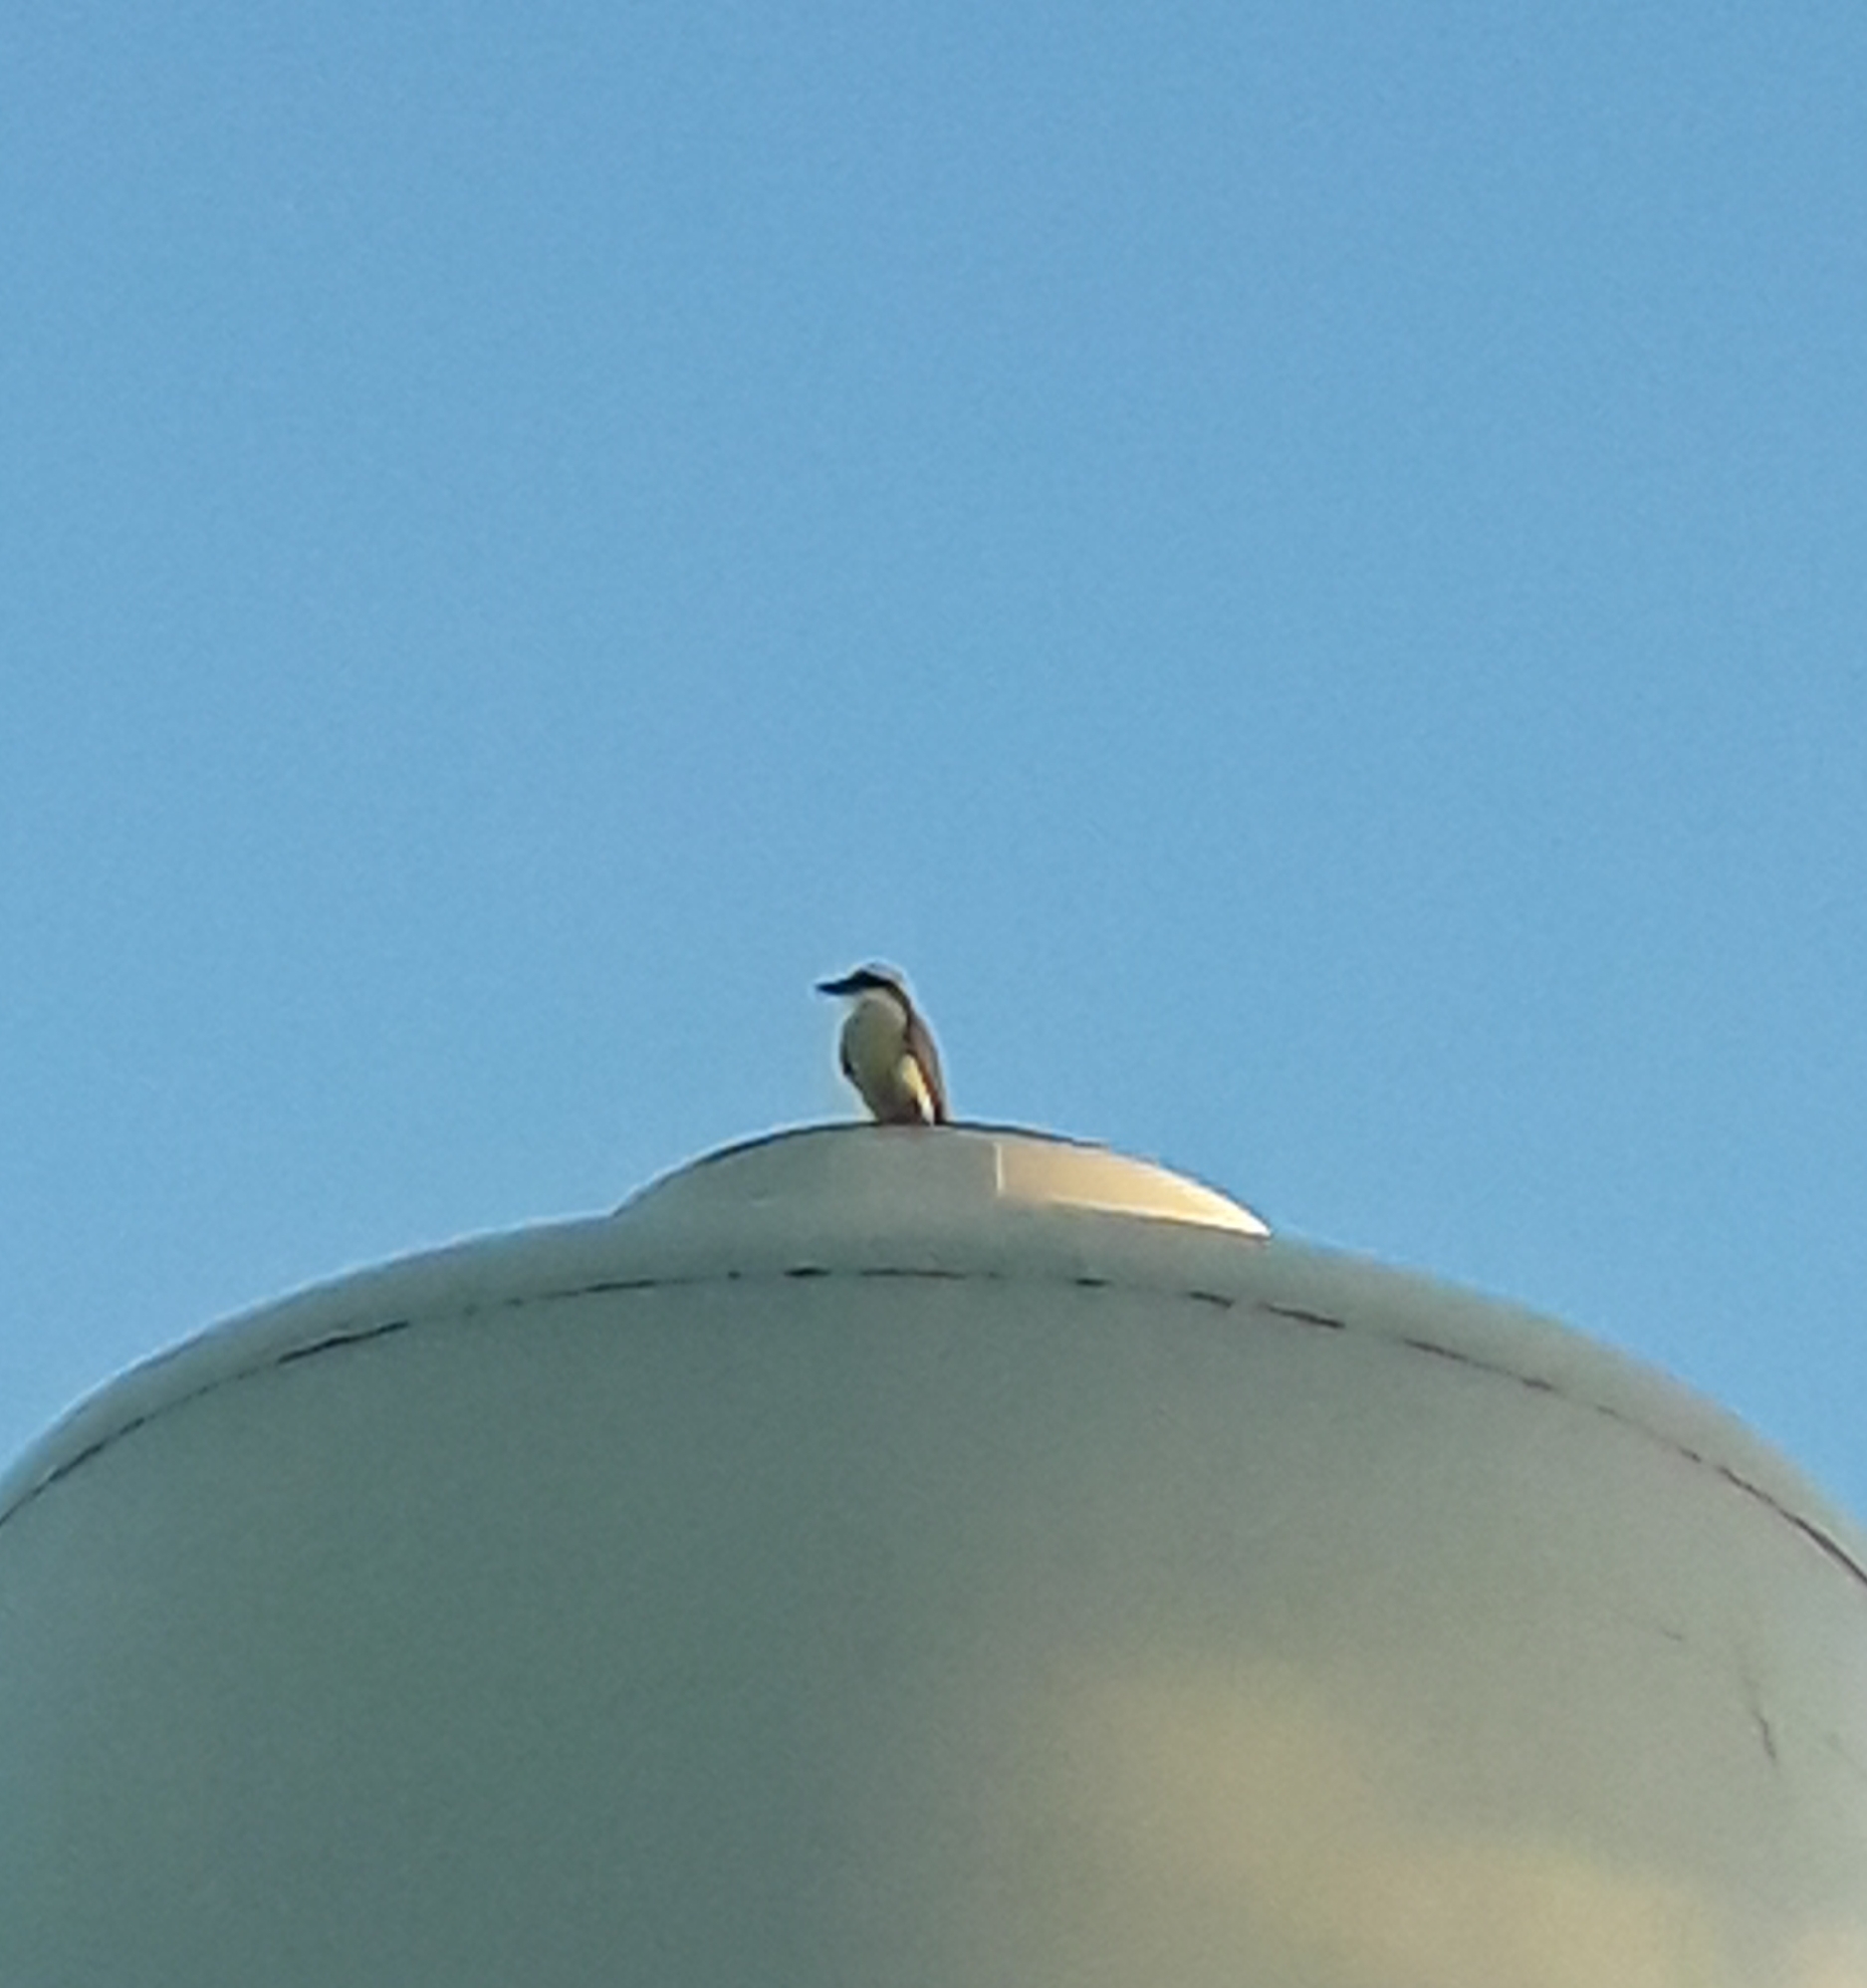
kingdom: Animalia
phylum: Chordata
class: Aves
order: Passeriformes
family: Tyrannidae
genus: Pitangus
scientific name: Pitangus sulphuratus
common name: Great kiskadee
